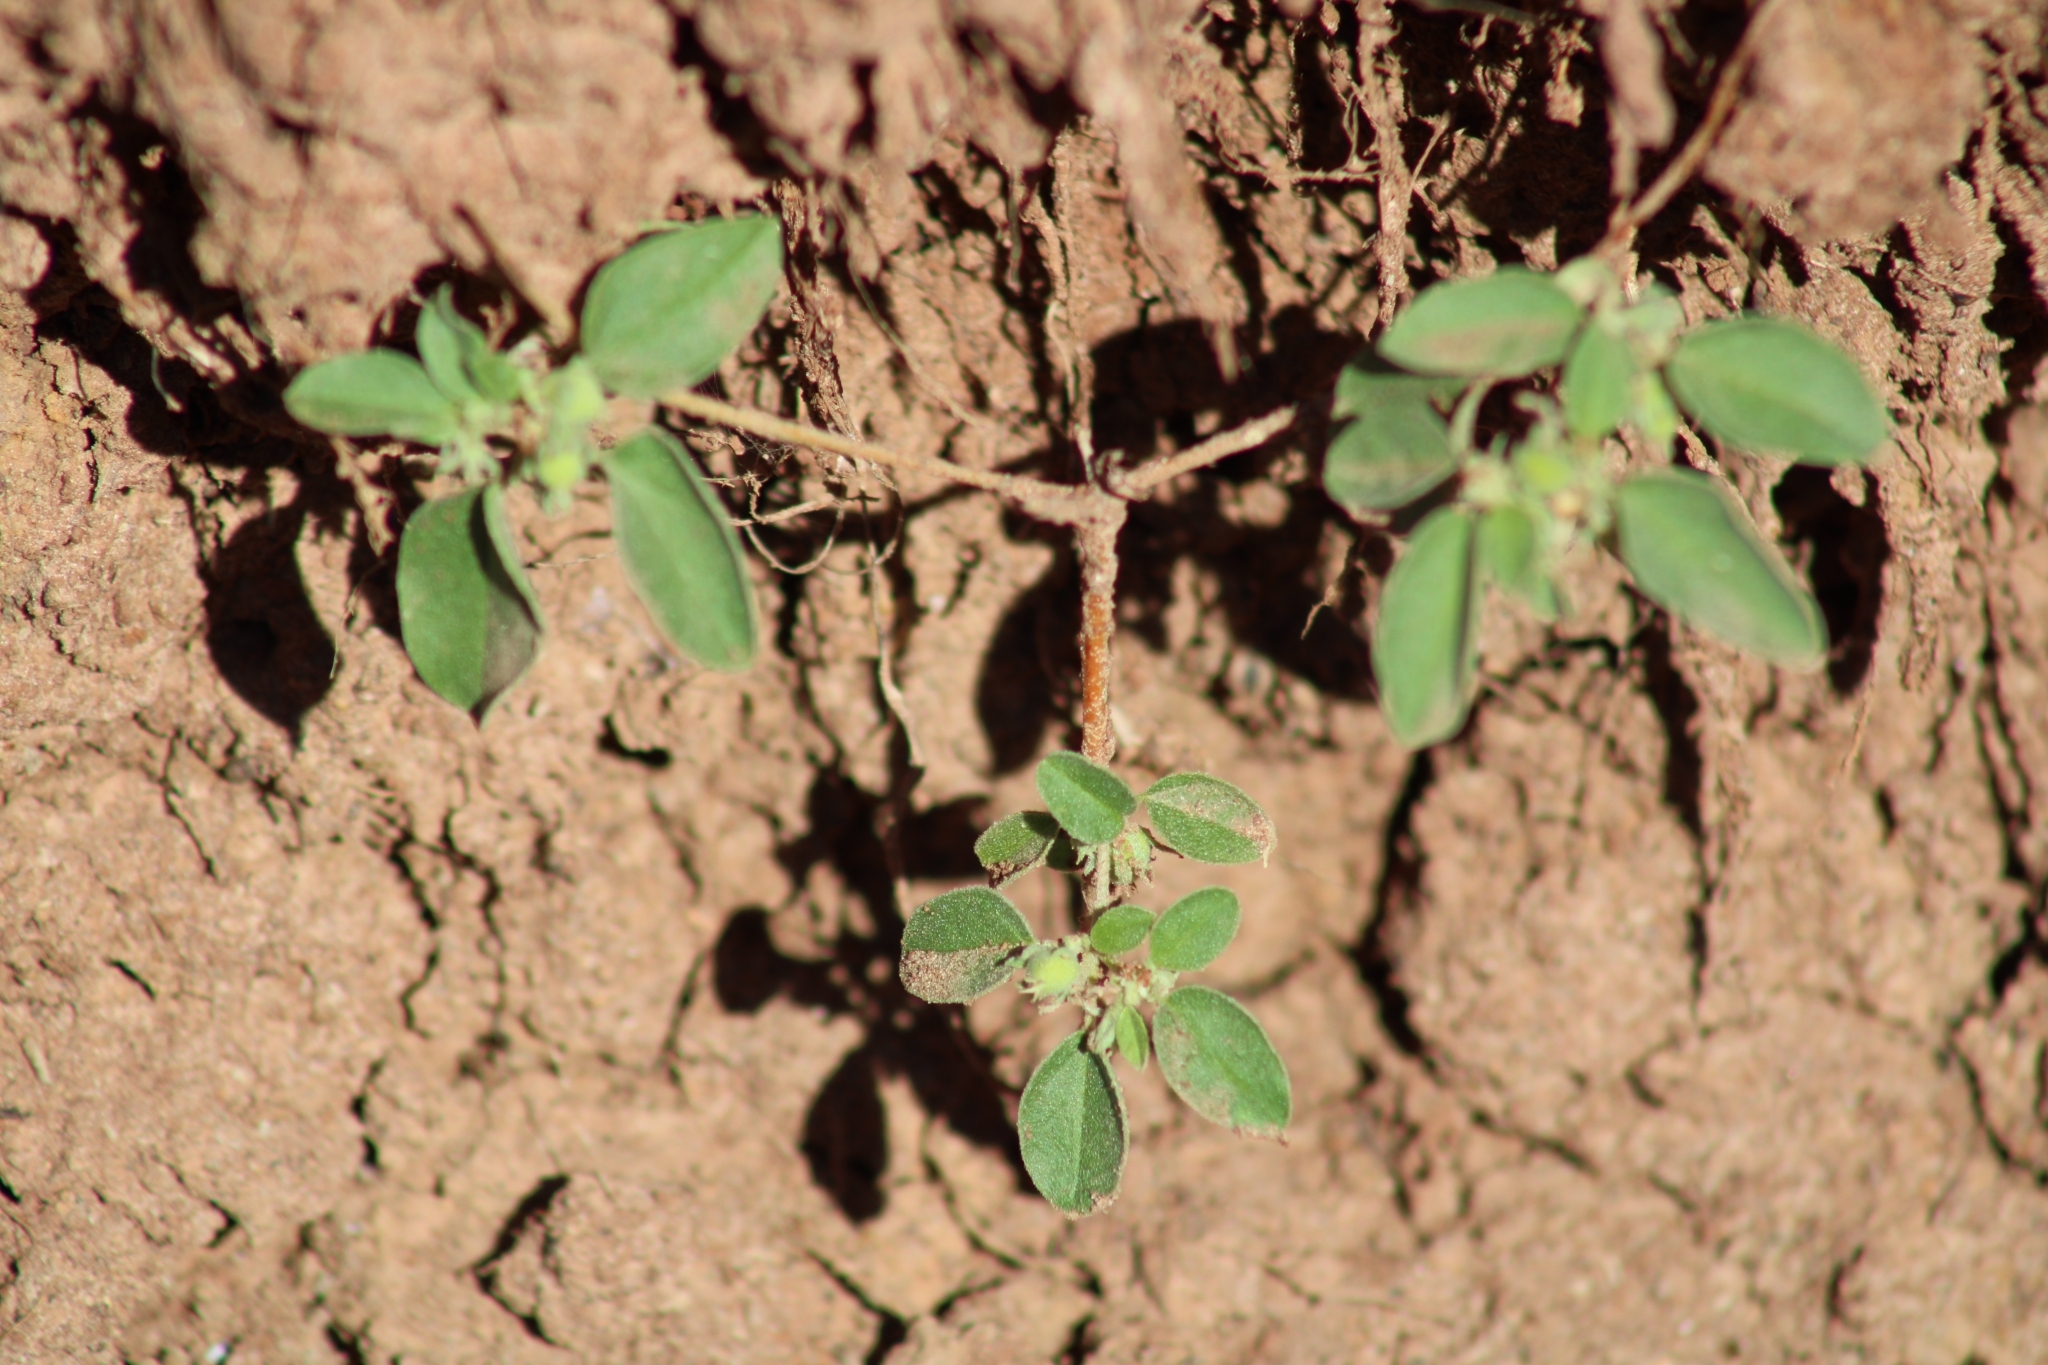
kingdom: Plantae
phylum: Tracheophyta
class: Magnoliopsida
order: Malpighiales
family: Euphorbiaceae
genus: Croton
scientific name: Croton monanthogynus
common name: One-seed croton
